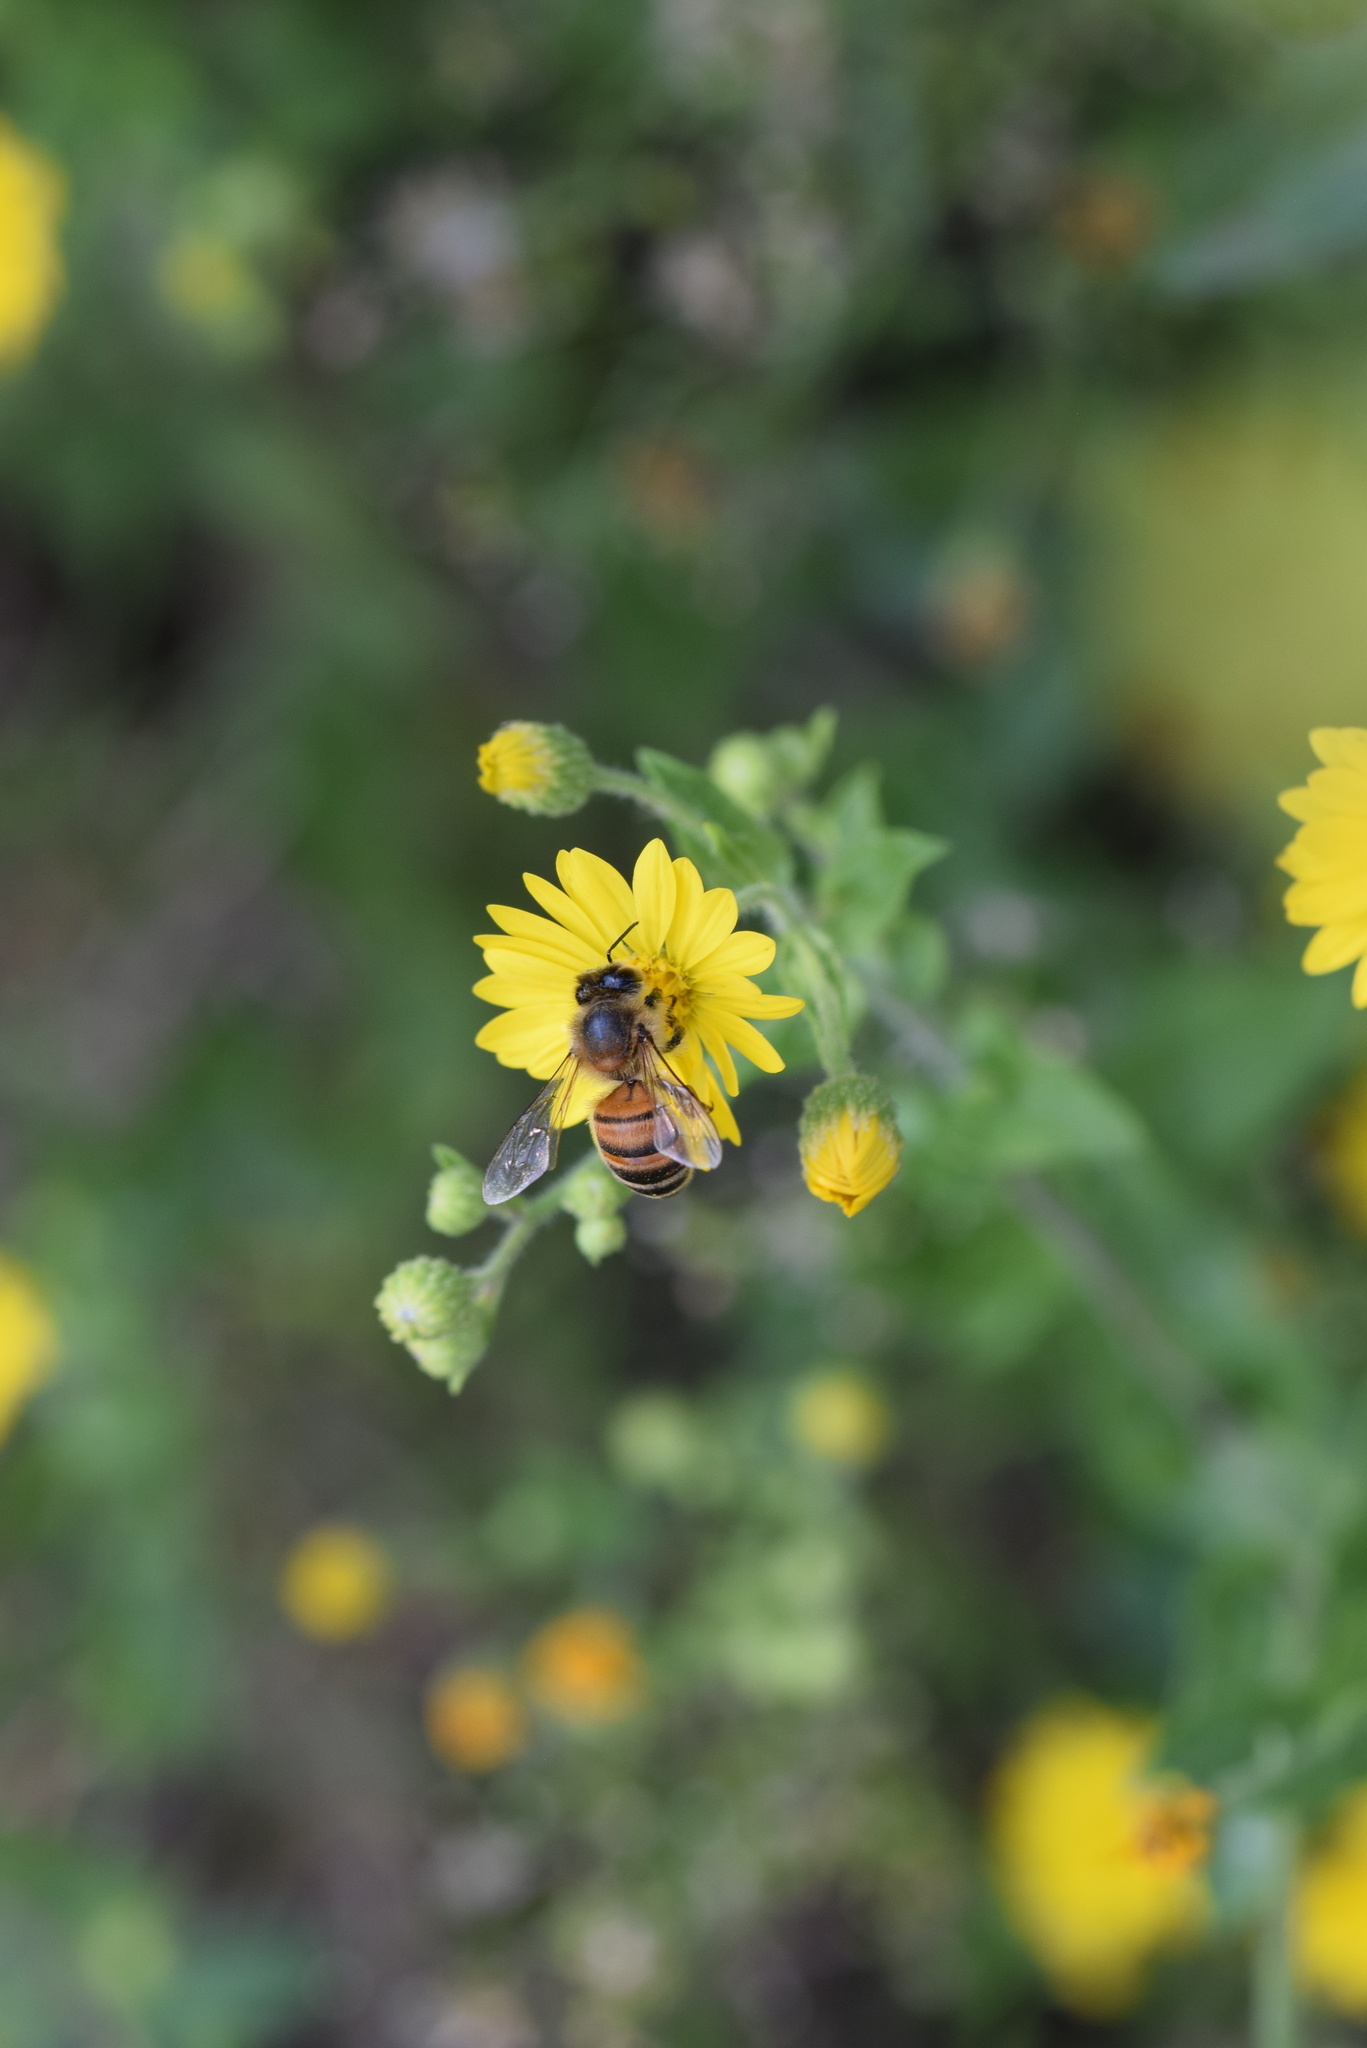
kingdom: Animalia
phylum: Arthropoda
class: Insecta
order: Hymenoptera
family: Apidae
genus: Apis
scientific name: Apis mellifera
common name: Honey bee
